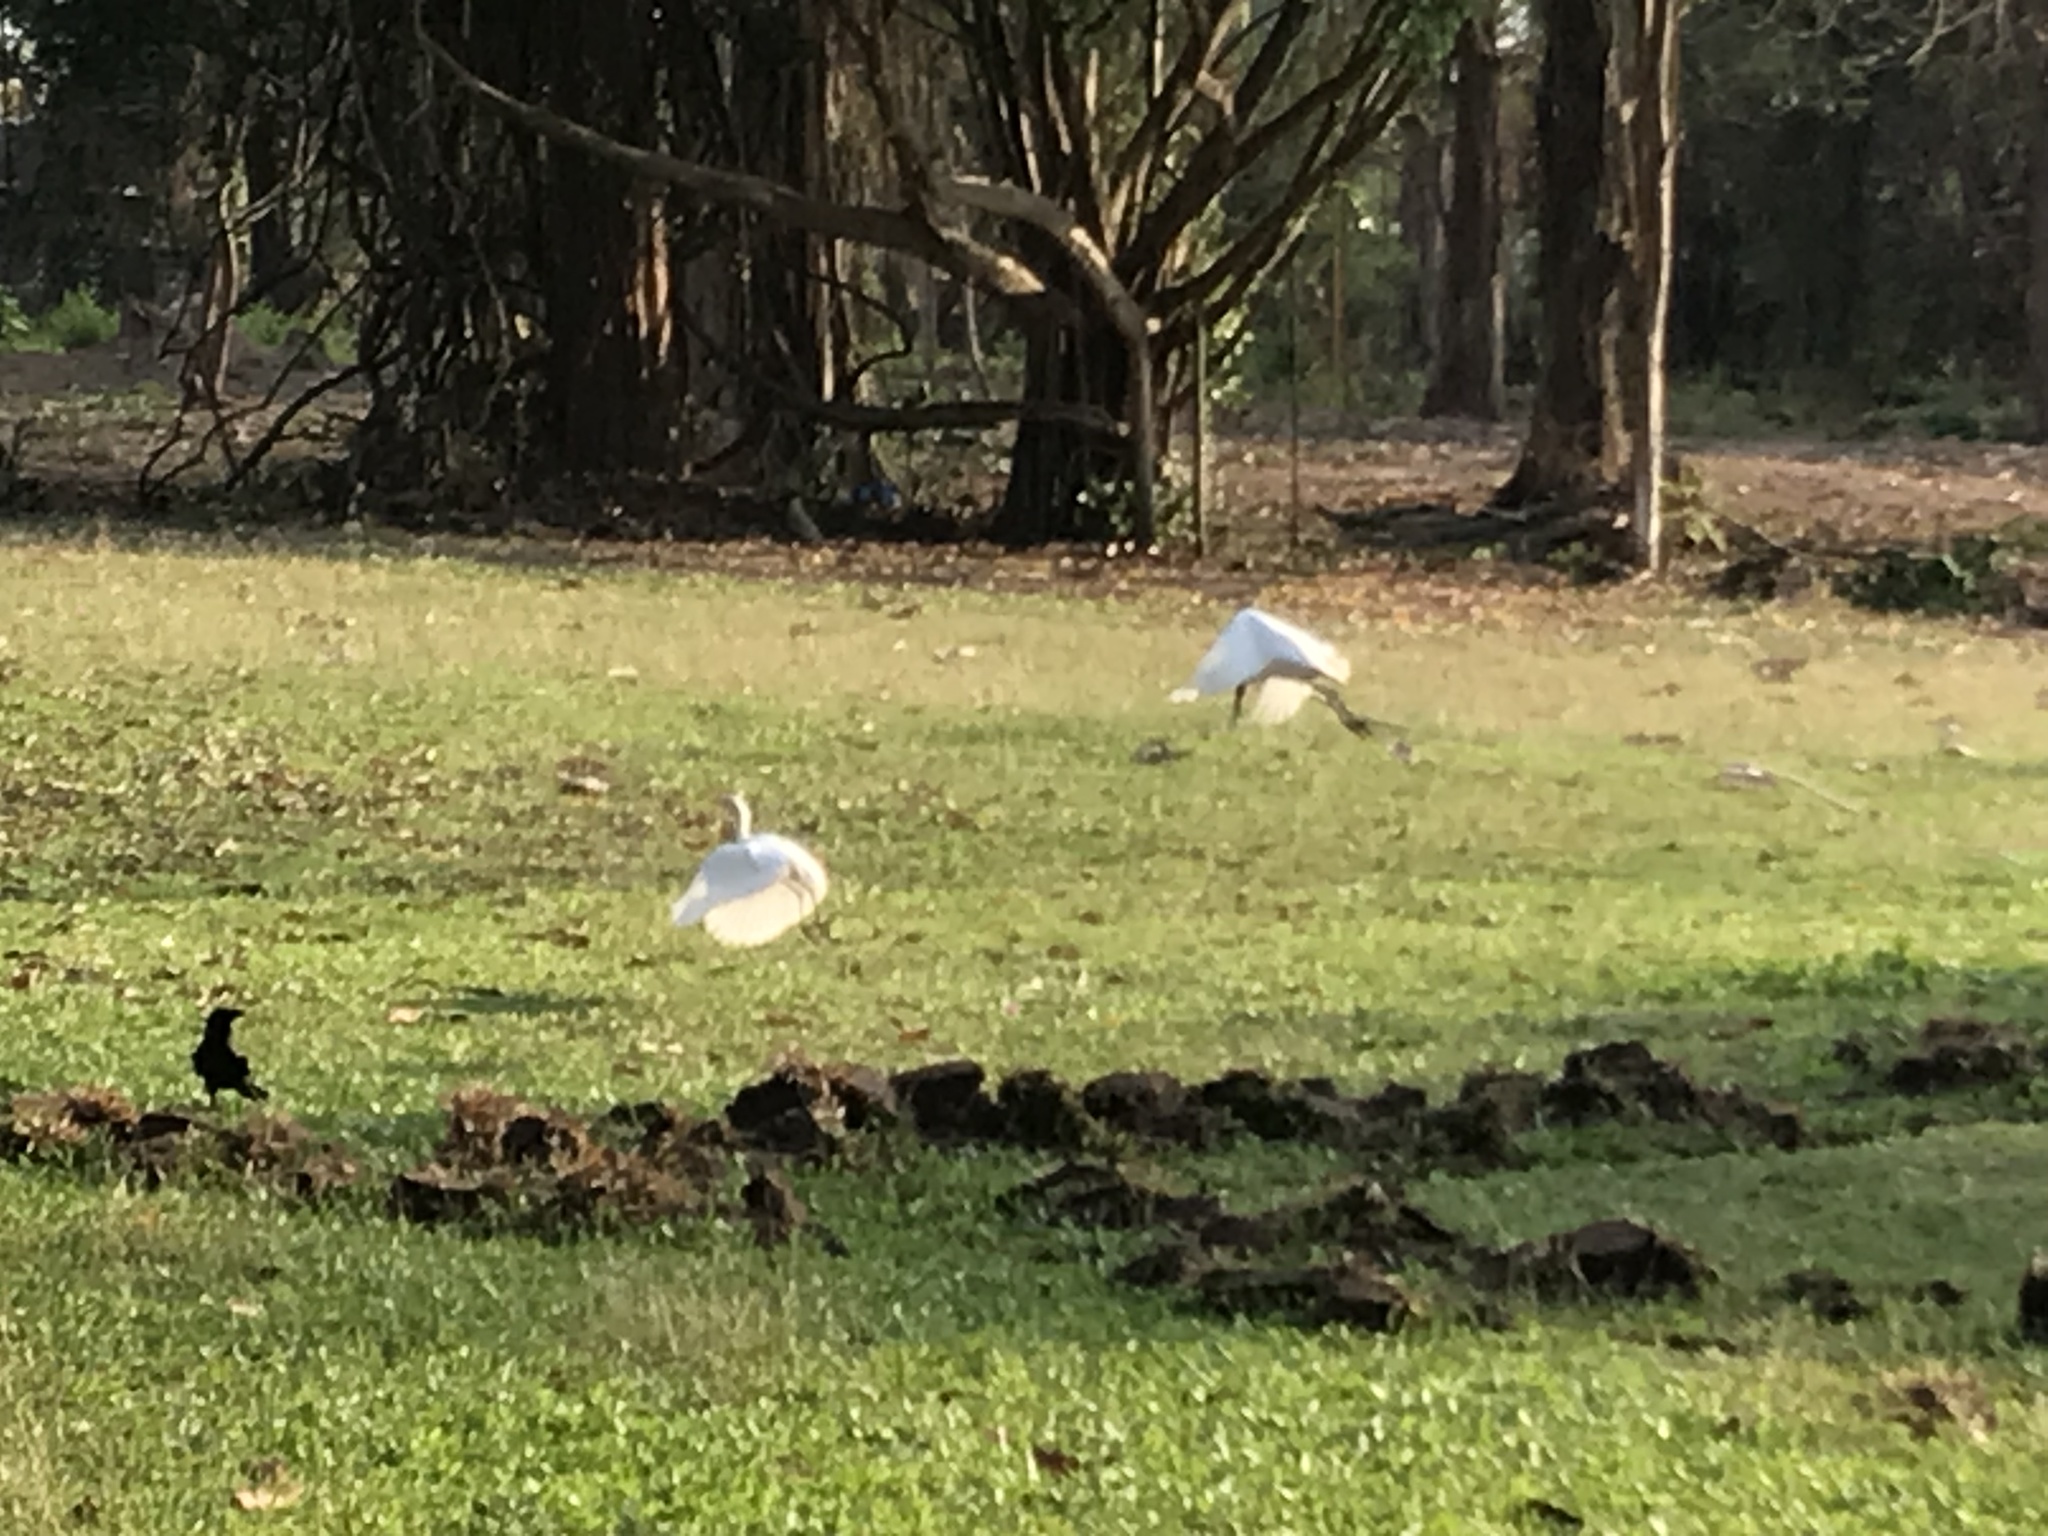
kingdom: Animalia
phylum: Chordata
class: Aves
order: Pelecaniformes
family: Ardeidae
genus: Bubulcus
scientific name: Bubulcus coromandus
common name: Eastern cattle egret
